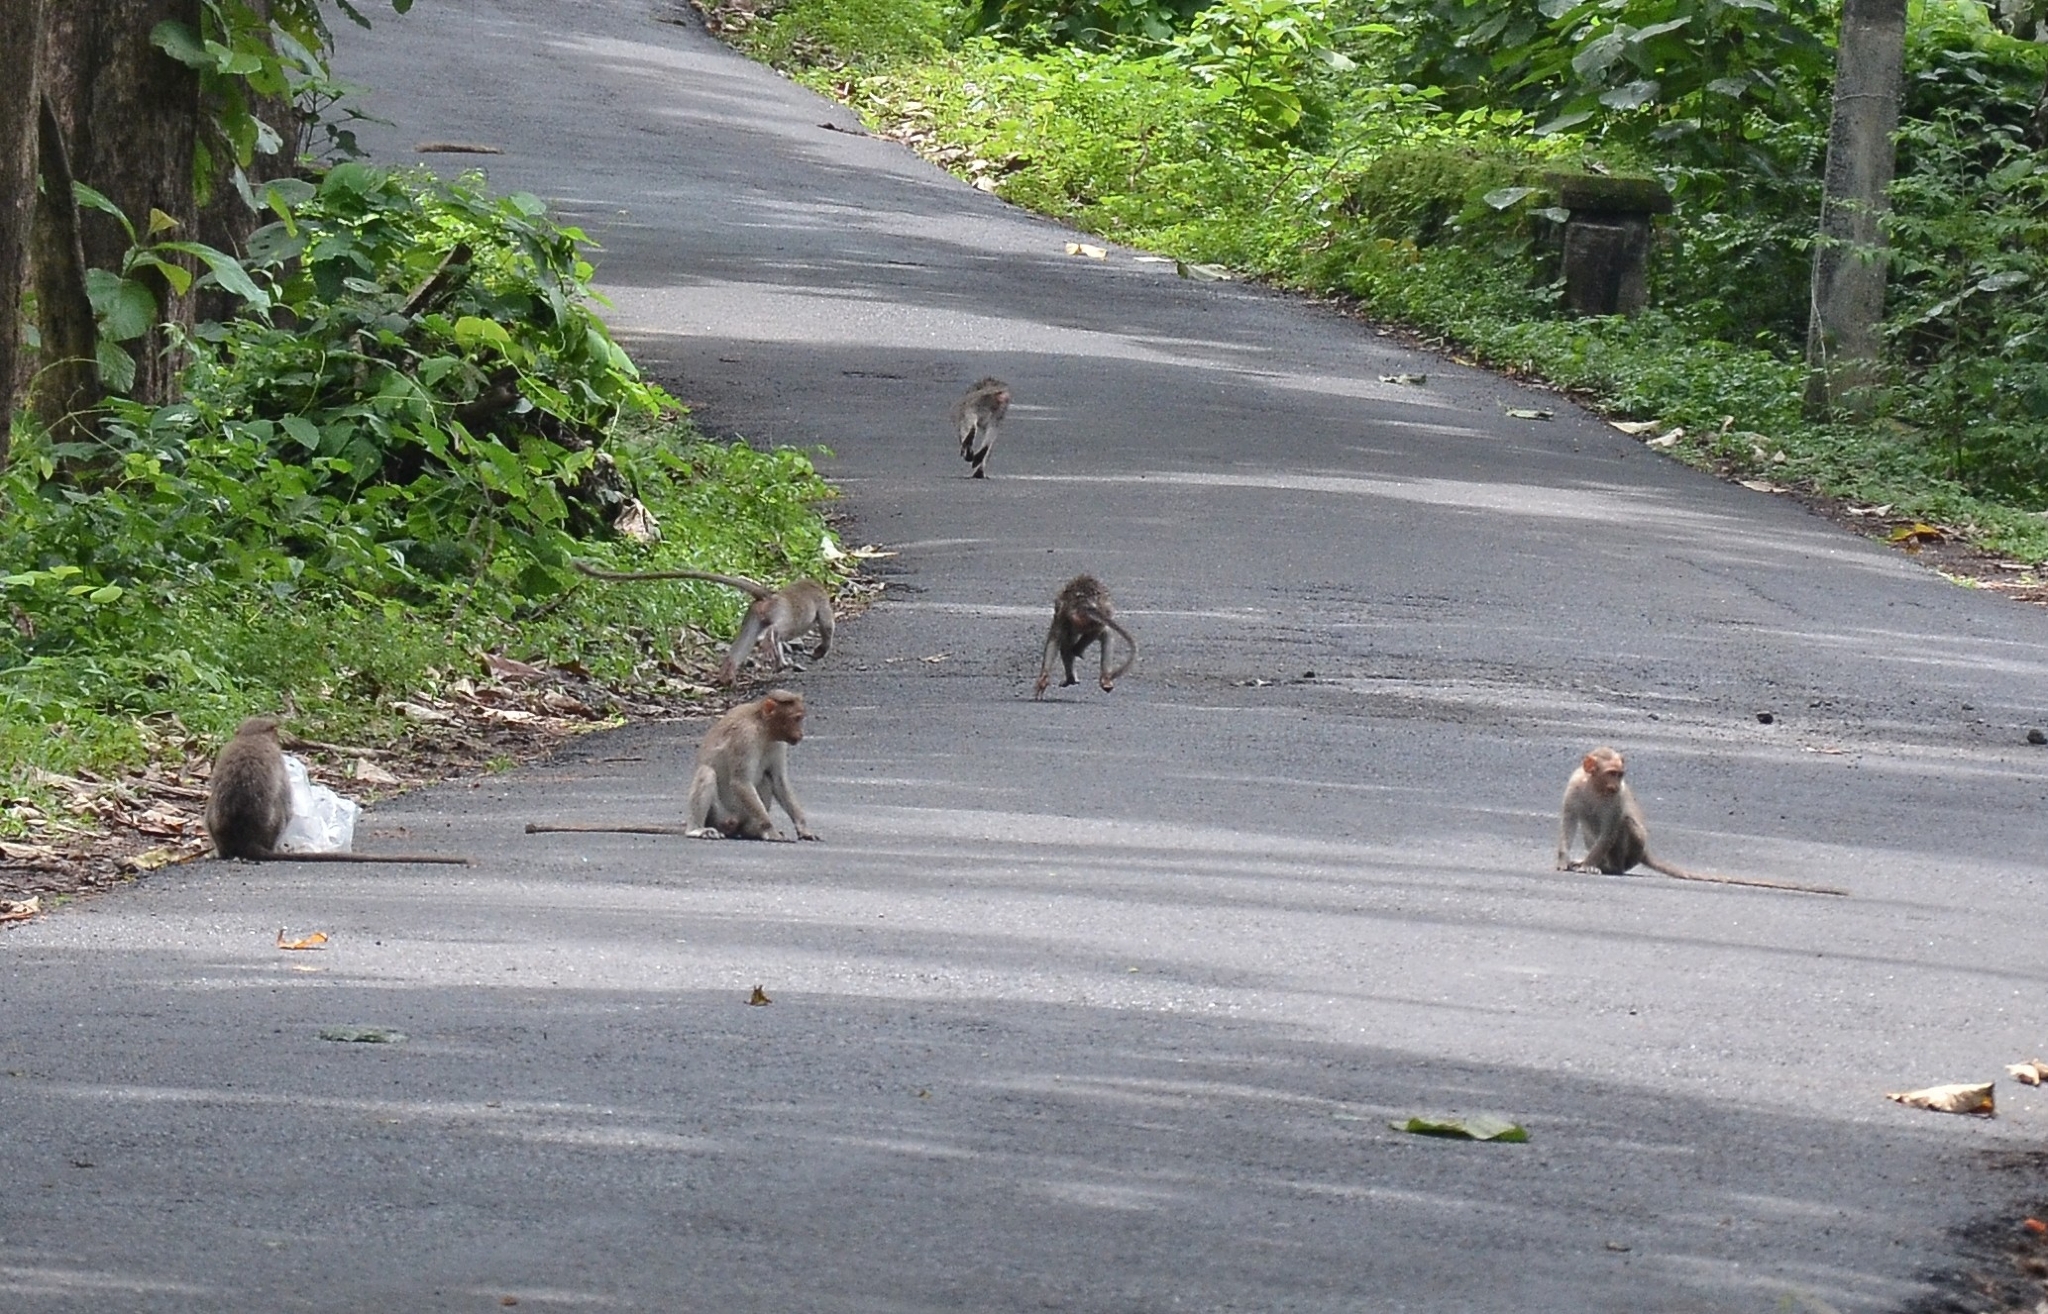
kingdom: Animalia
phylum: Chordata
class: Mammalia
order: Primates
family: Cercopithecidae
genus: Macaca
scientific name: Macaca radiata
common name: Bonnet macaque
